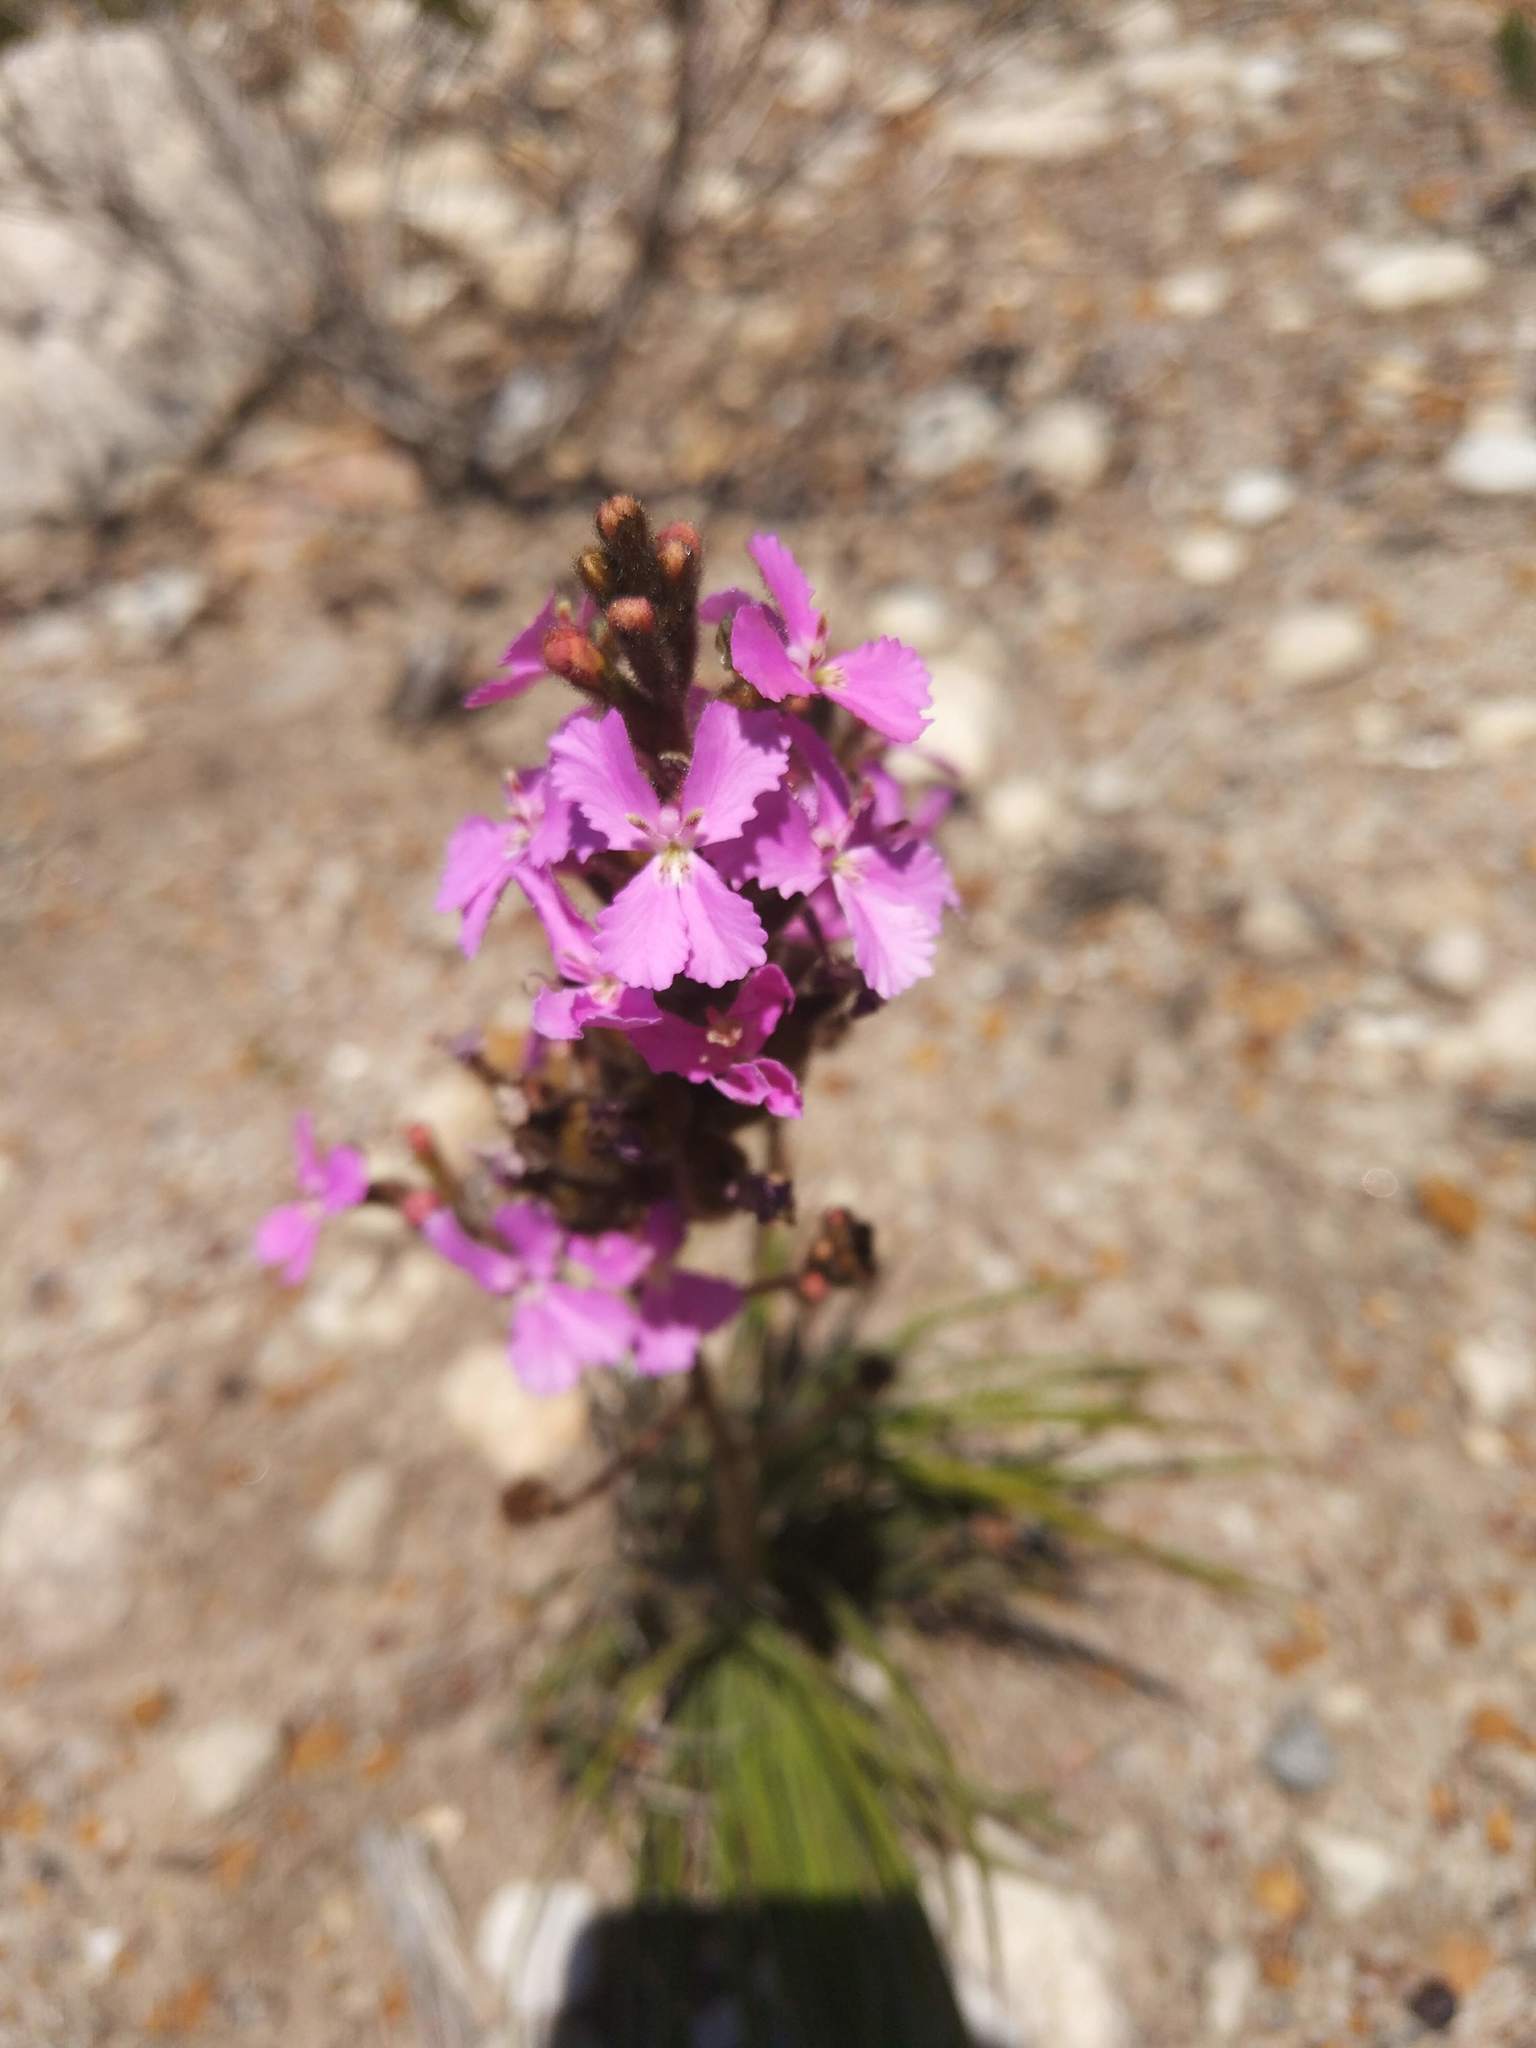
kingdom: Plantae
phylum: Tracheophyta
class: Magnoliopsida
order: Asterales
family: Stylidiaceae
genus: Stylidium
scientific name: Stylidium albomontis
